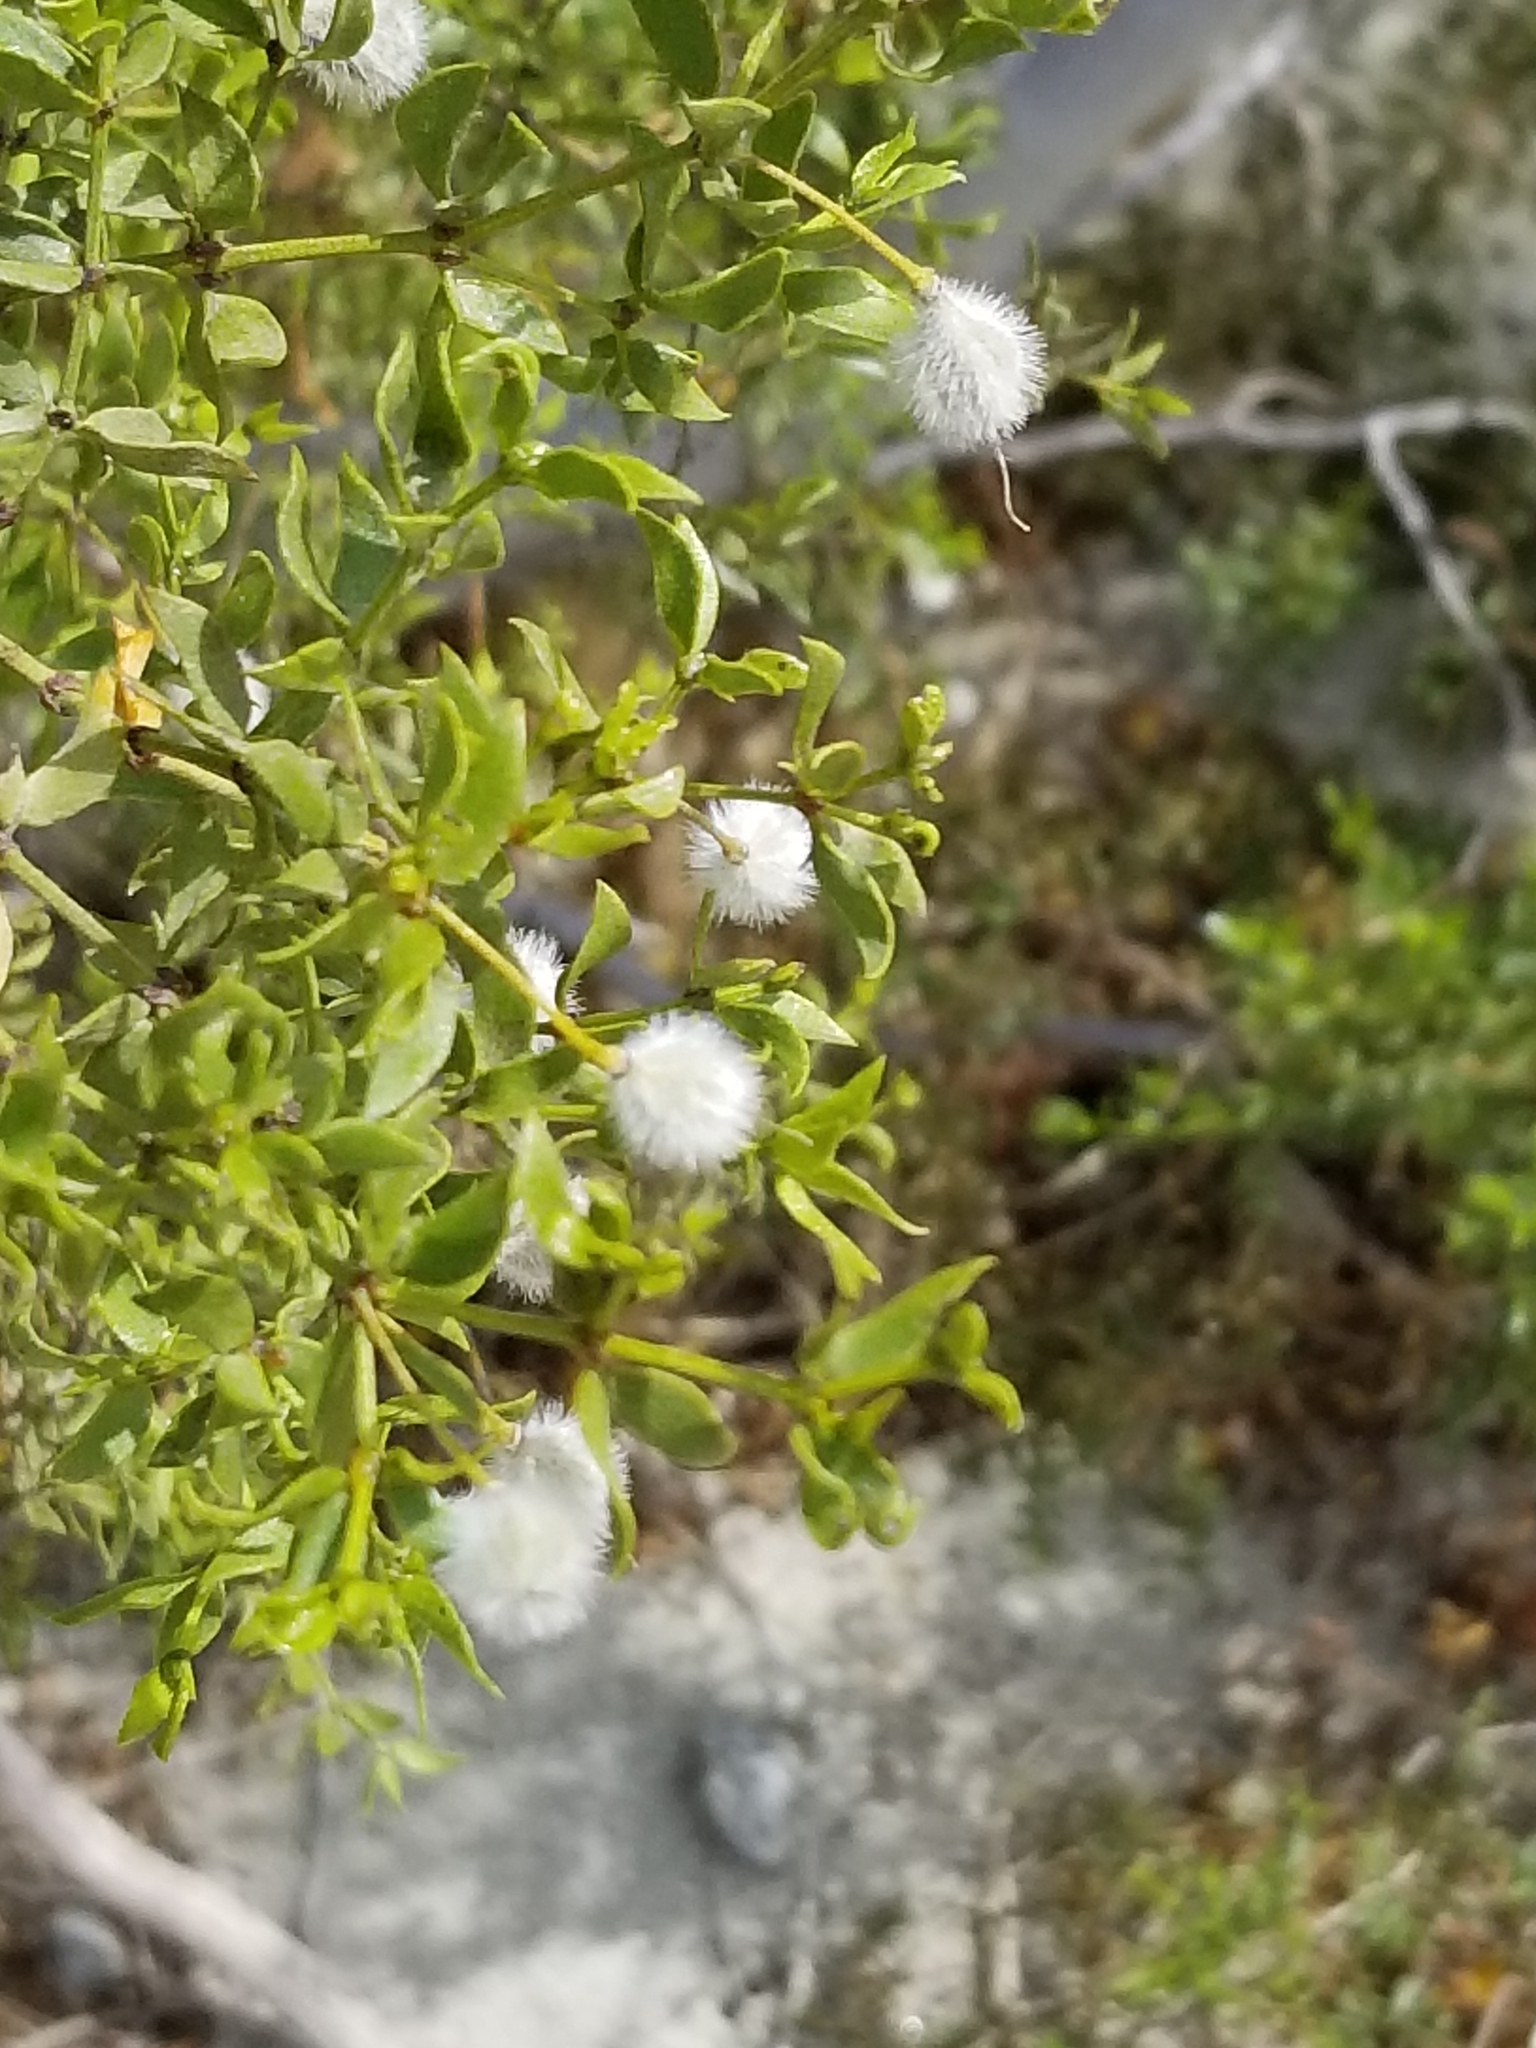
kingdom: Plantae
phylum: Tracheophyta
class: Magnoliopsida
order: Zygophyllales
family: Zygophyllaceae
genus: Larrea
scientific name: Larrea tridentata
